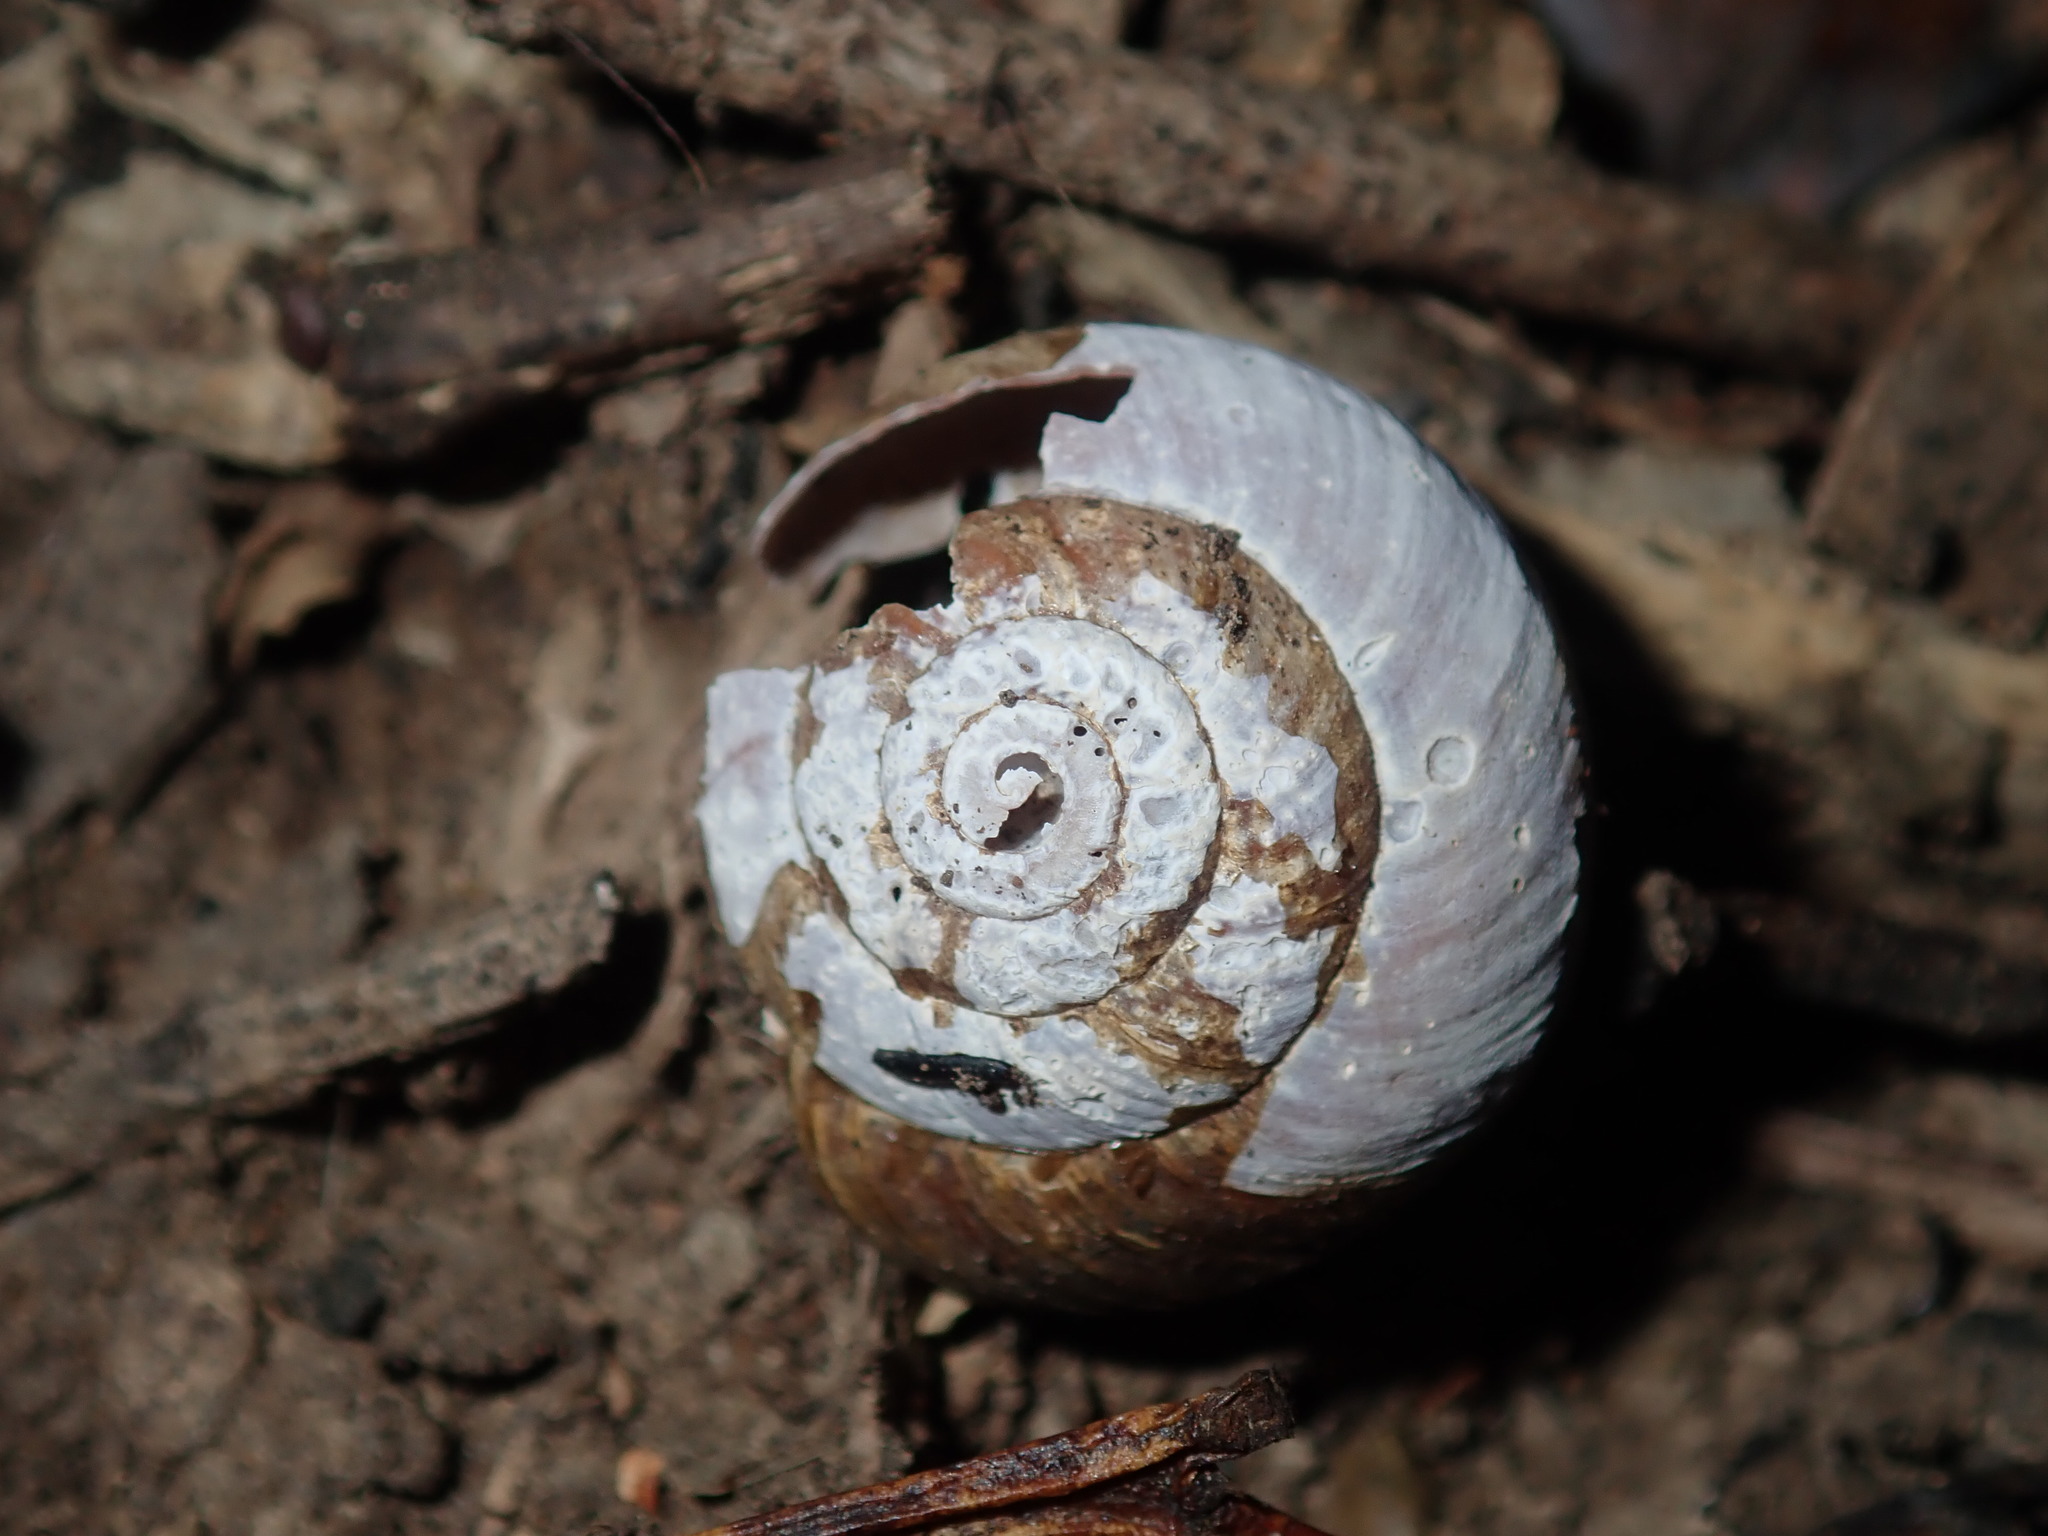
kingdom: Animalia
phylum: Mollusca
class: Gastropoda
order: Stylommatophora
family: Camaenidae
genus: Sauroconcha
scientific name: Sauroconcha sheai
